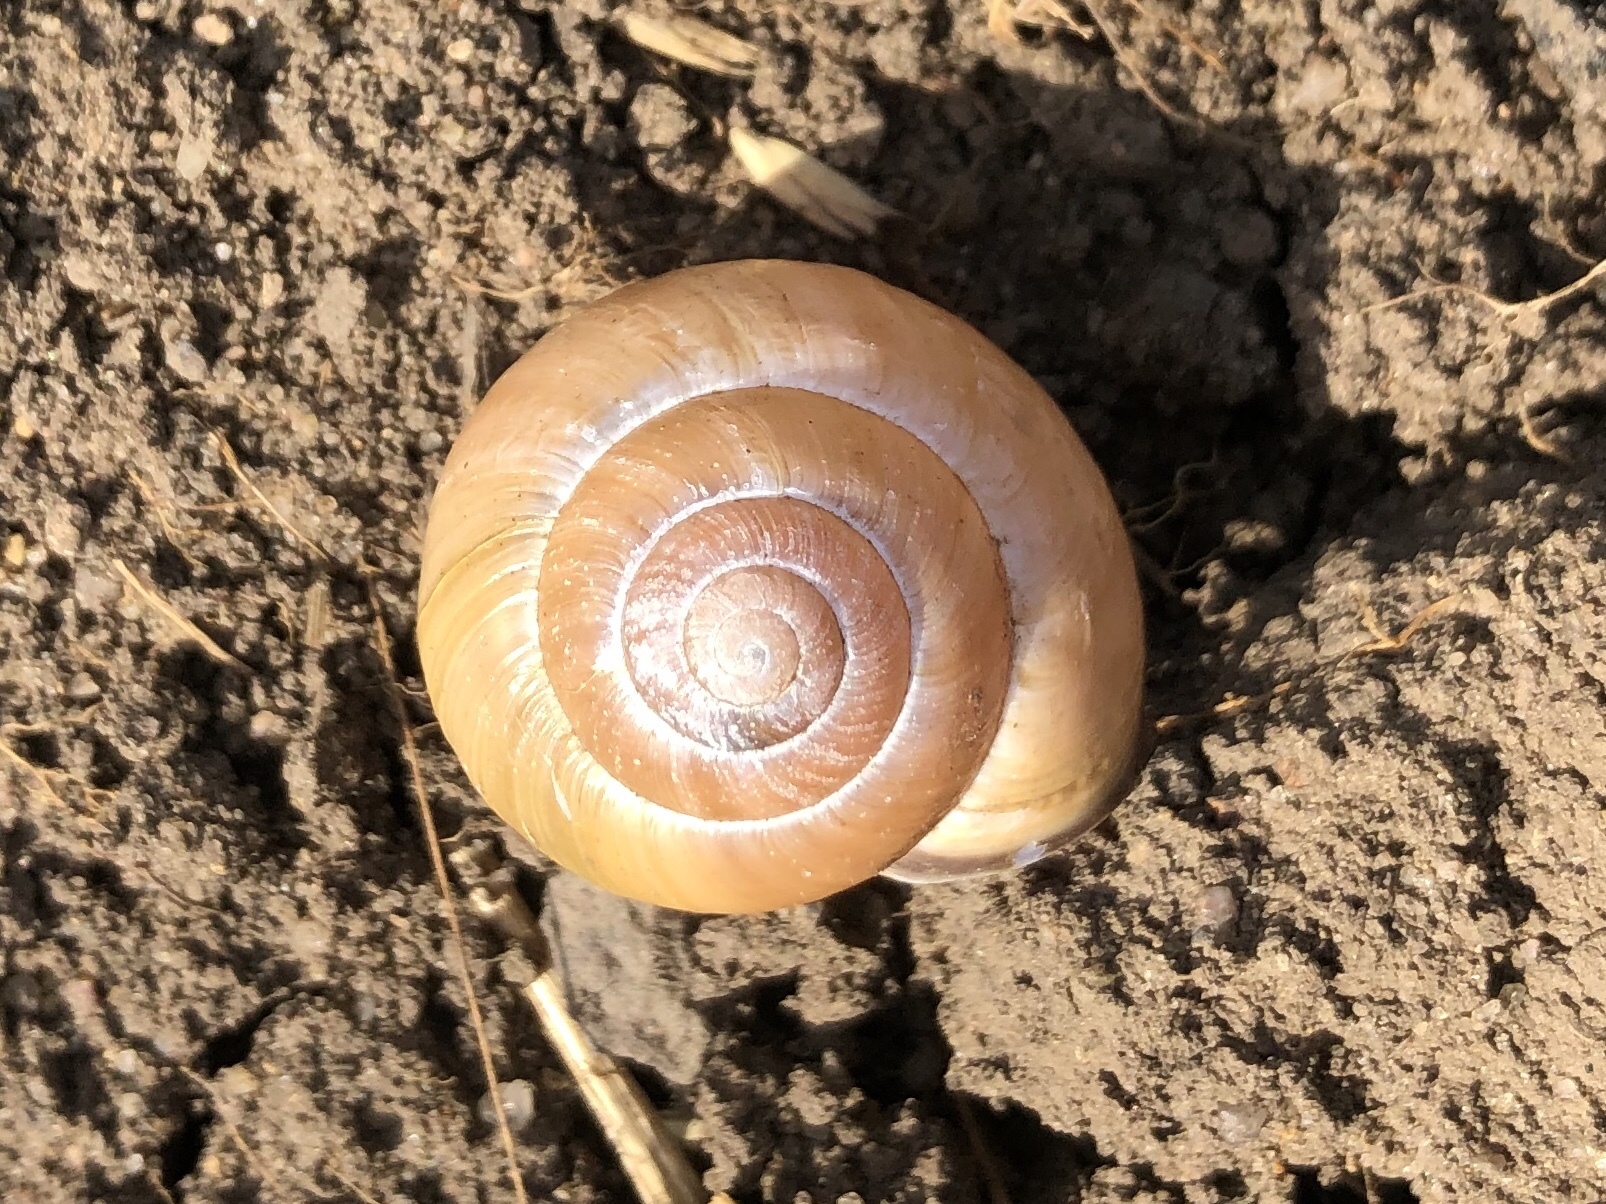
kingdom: Animalia
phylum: Mollusca
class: Gastropoda
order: Stylommatophora
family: Helicidae
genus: Cepaea
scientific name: Cepaea nemoralis
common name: Grovesnail
